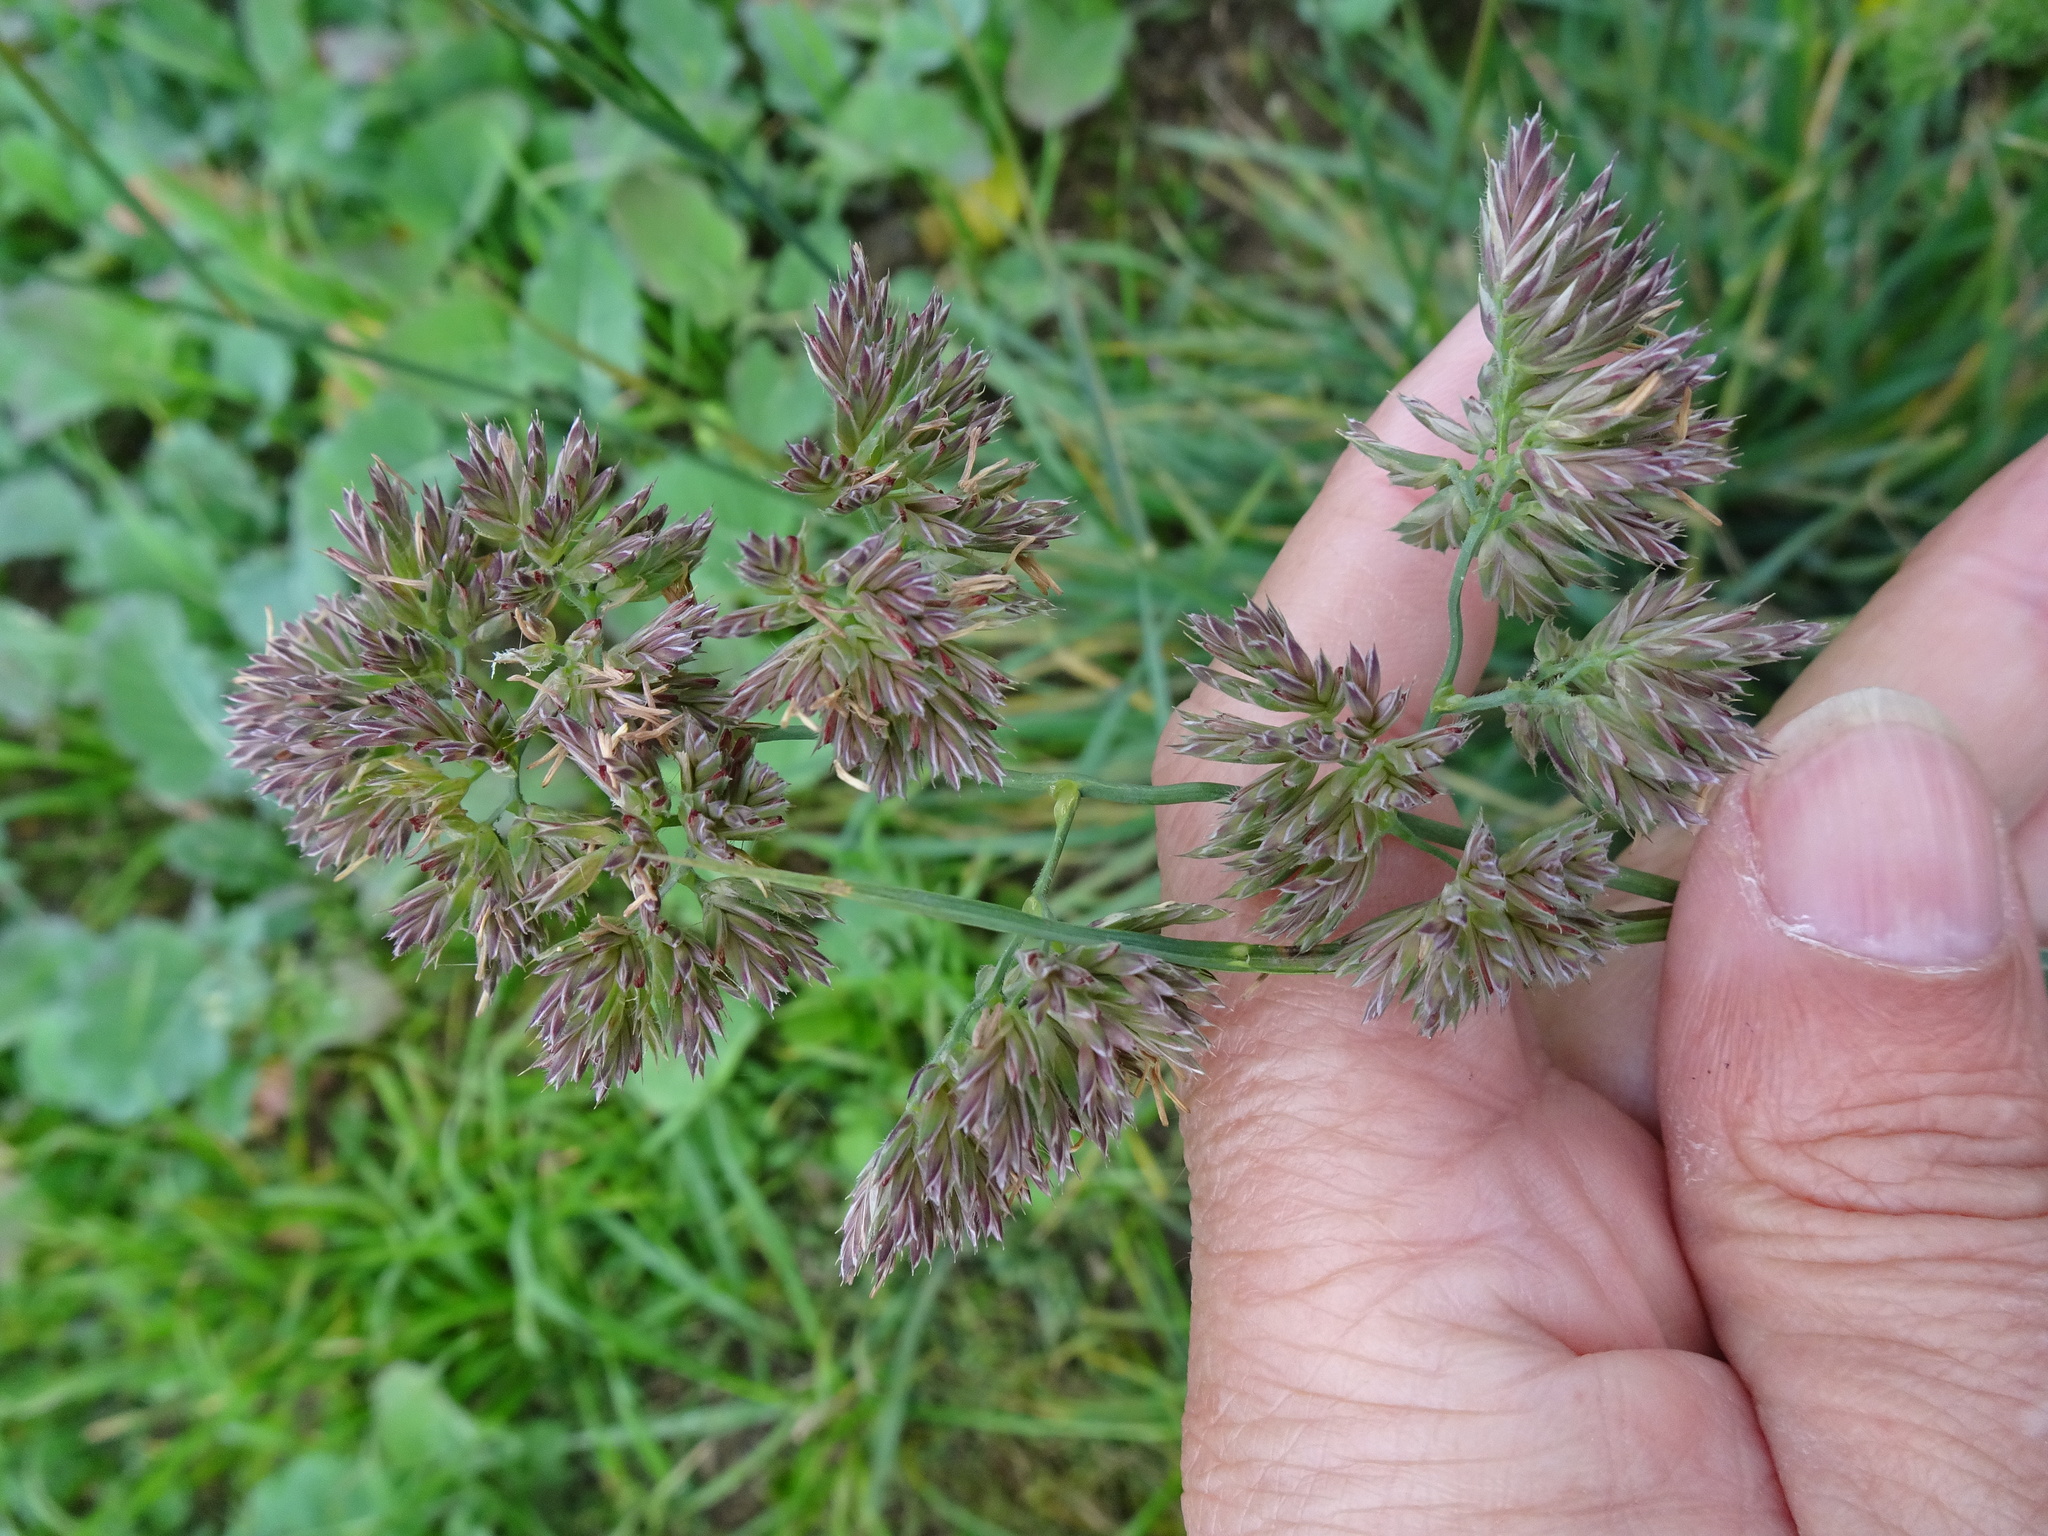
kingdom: Plantae
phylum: Tracheophyta
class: Liliopsida
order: Poales
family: Poaceae
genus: Dactylis
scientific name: Dactylis glomerata
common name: Orchardgrass
